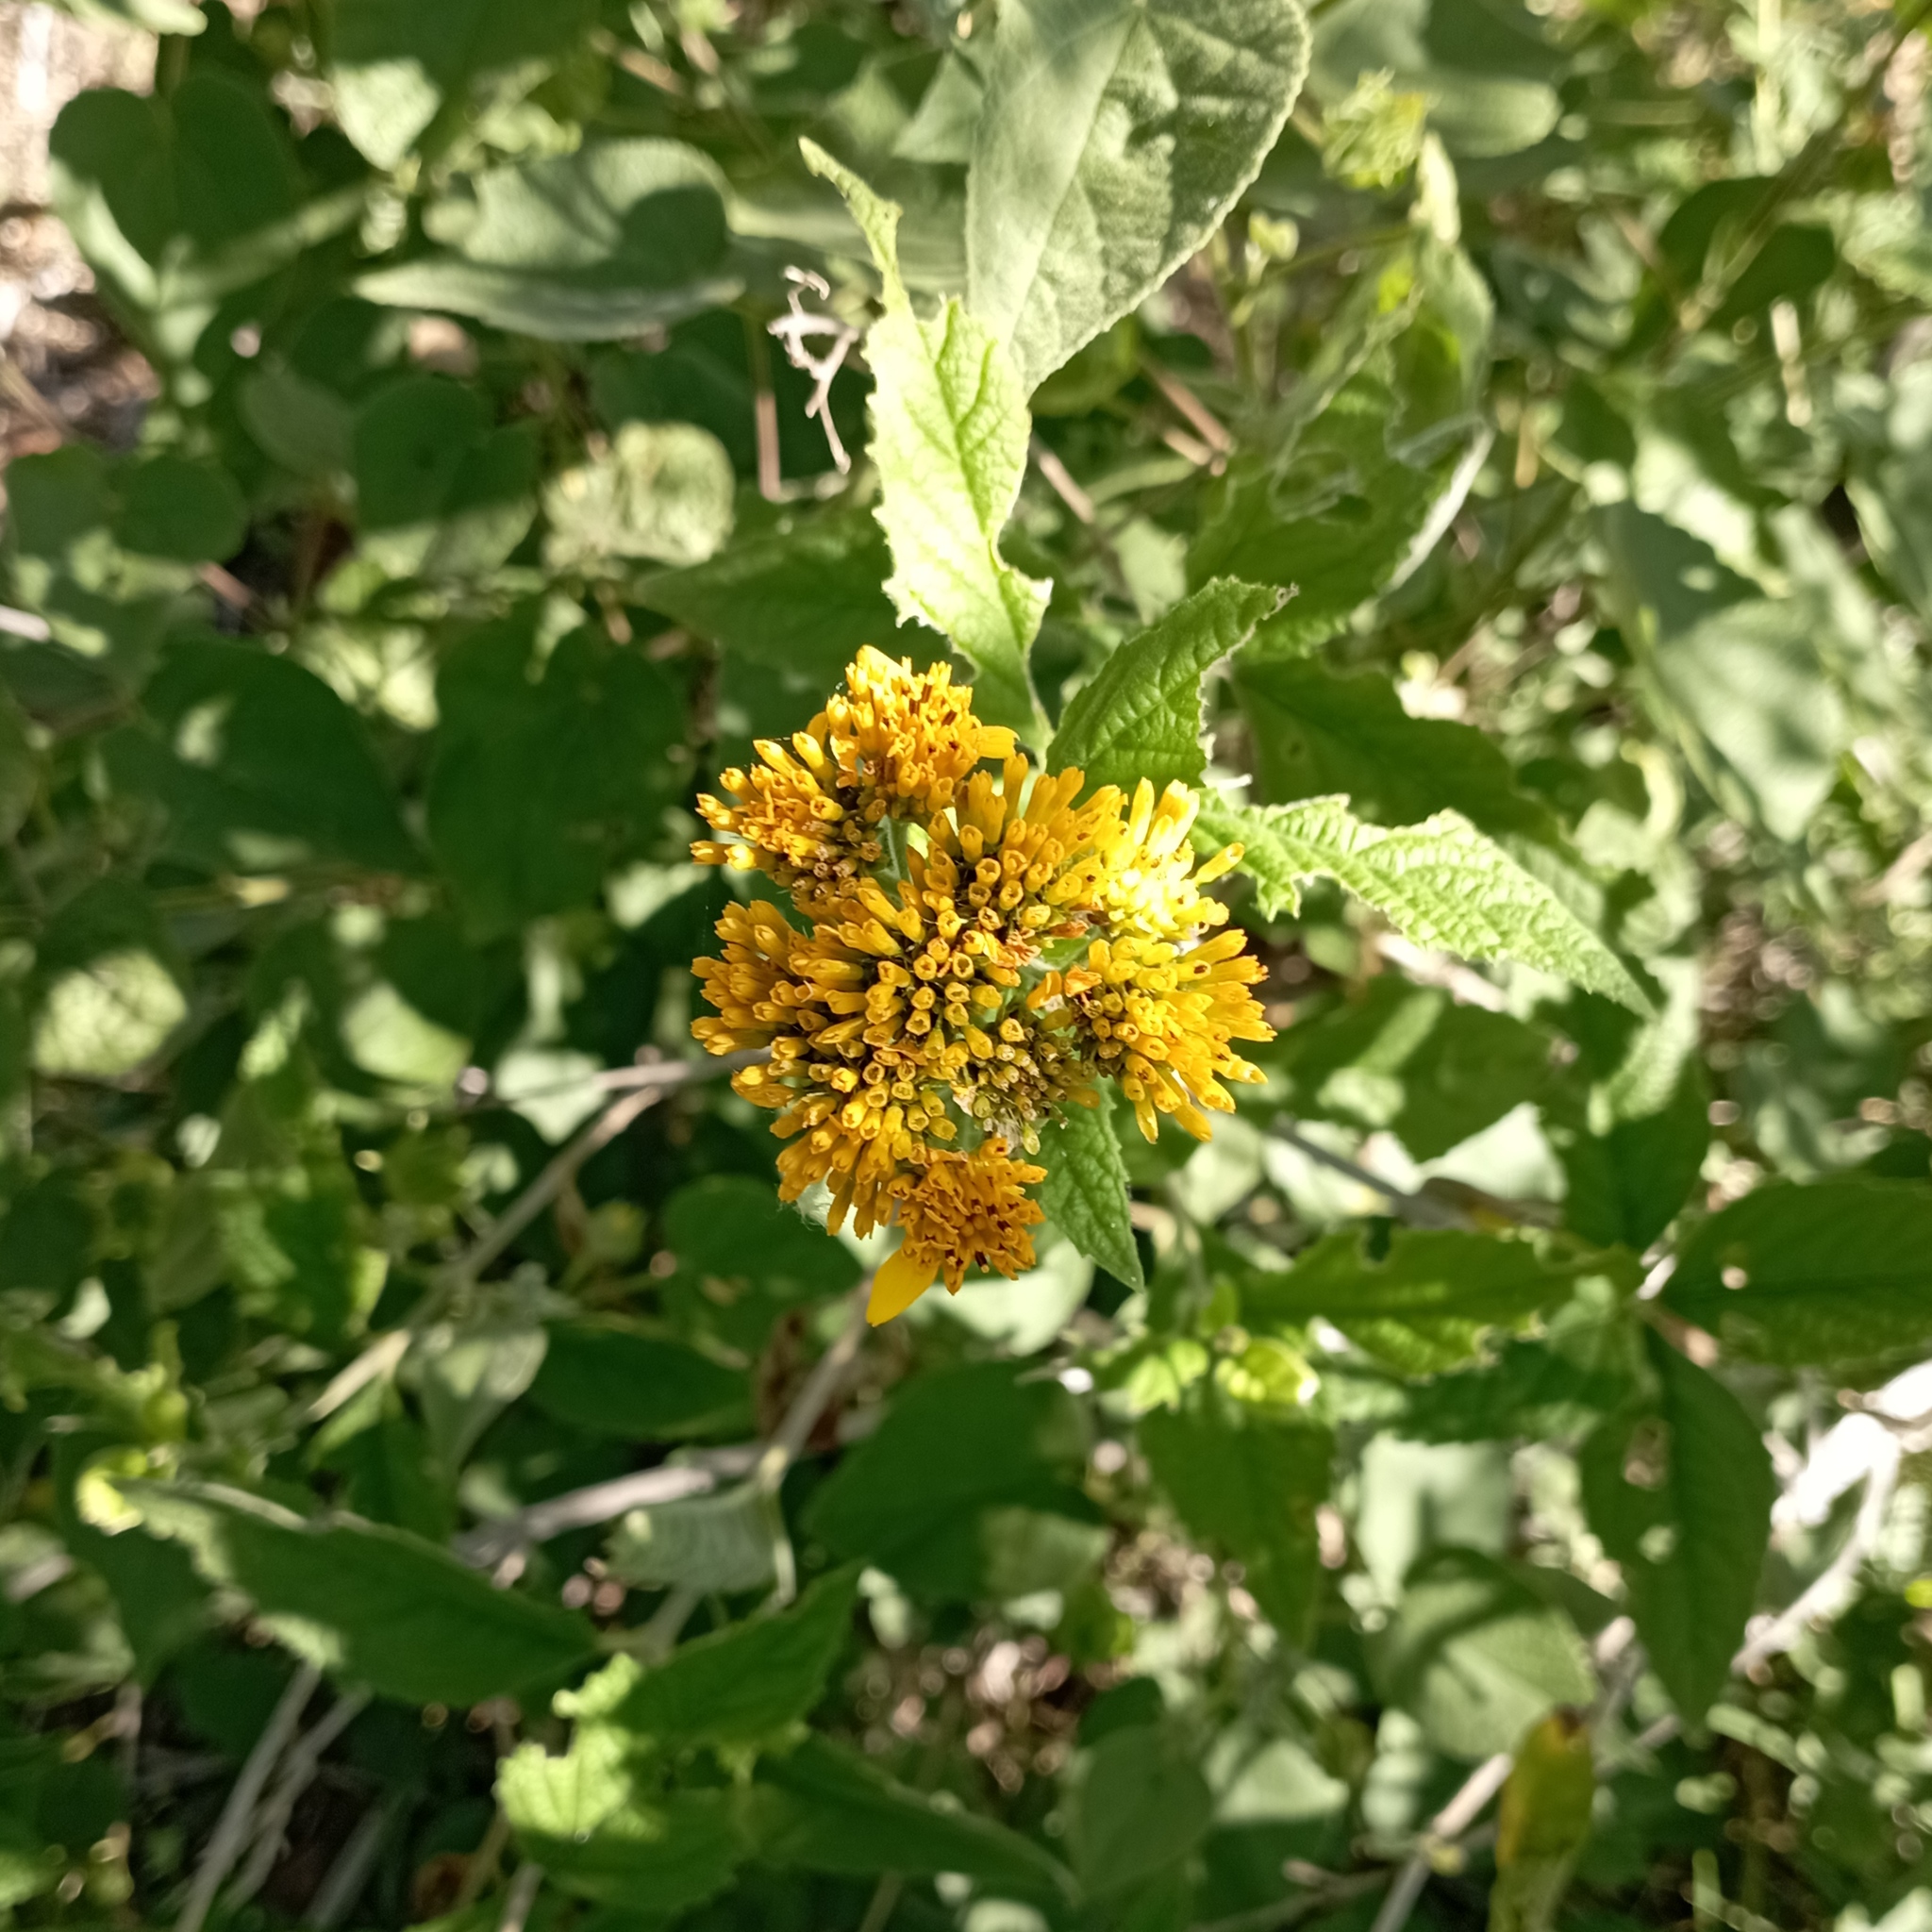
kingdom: Plantae
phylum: Tracheophyta
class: Magnoliopsida
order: Asterales
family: Asteraceae
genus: Verbesina
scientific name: Verbesina serrata
